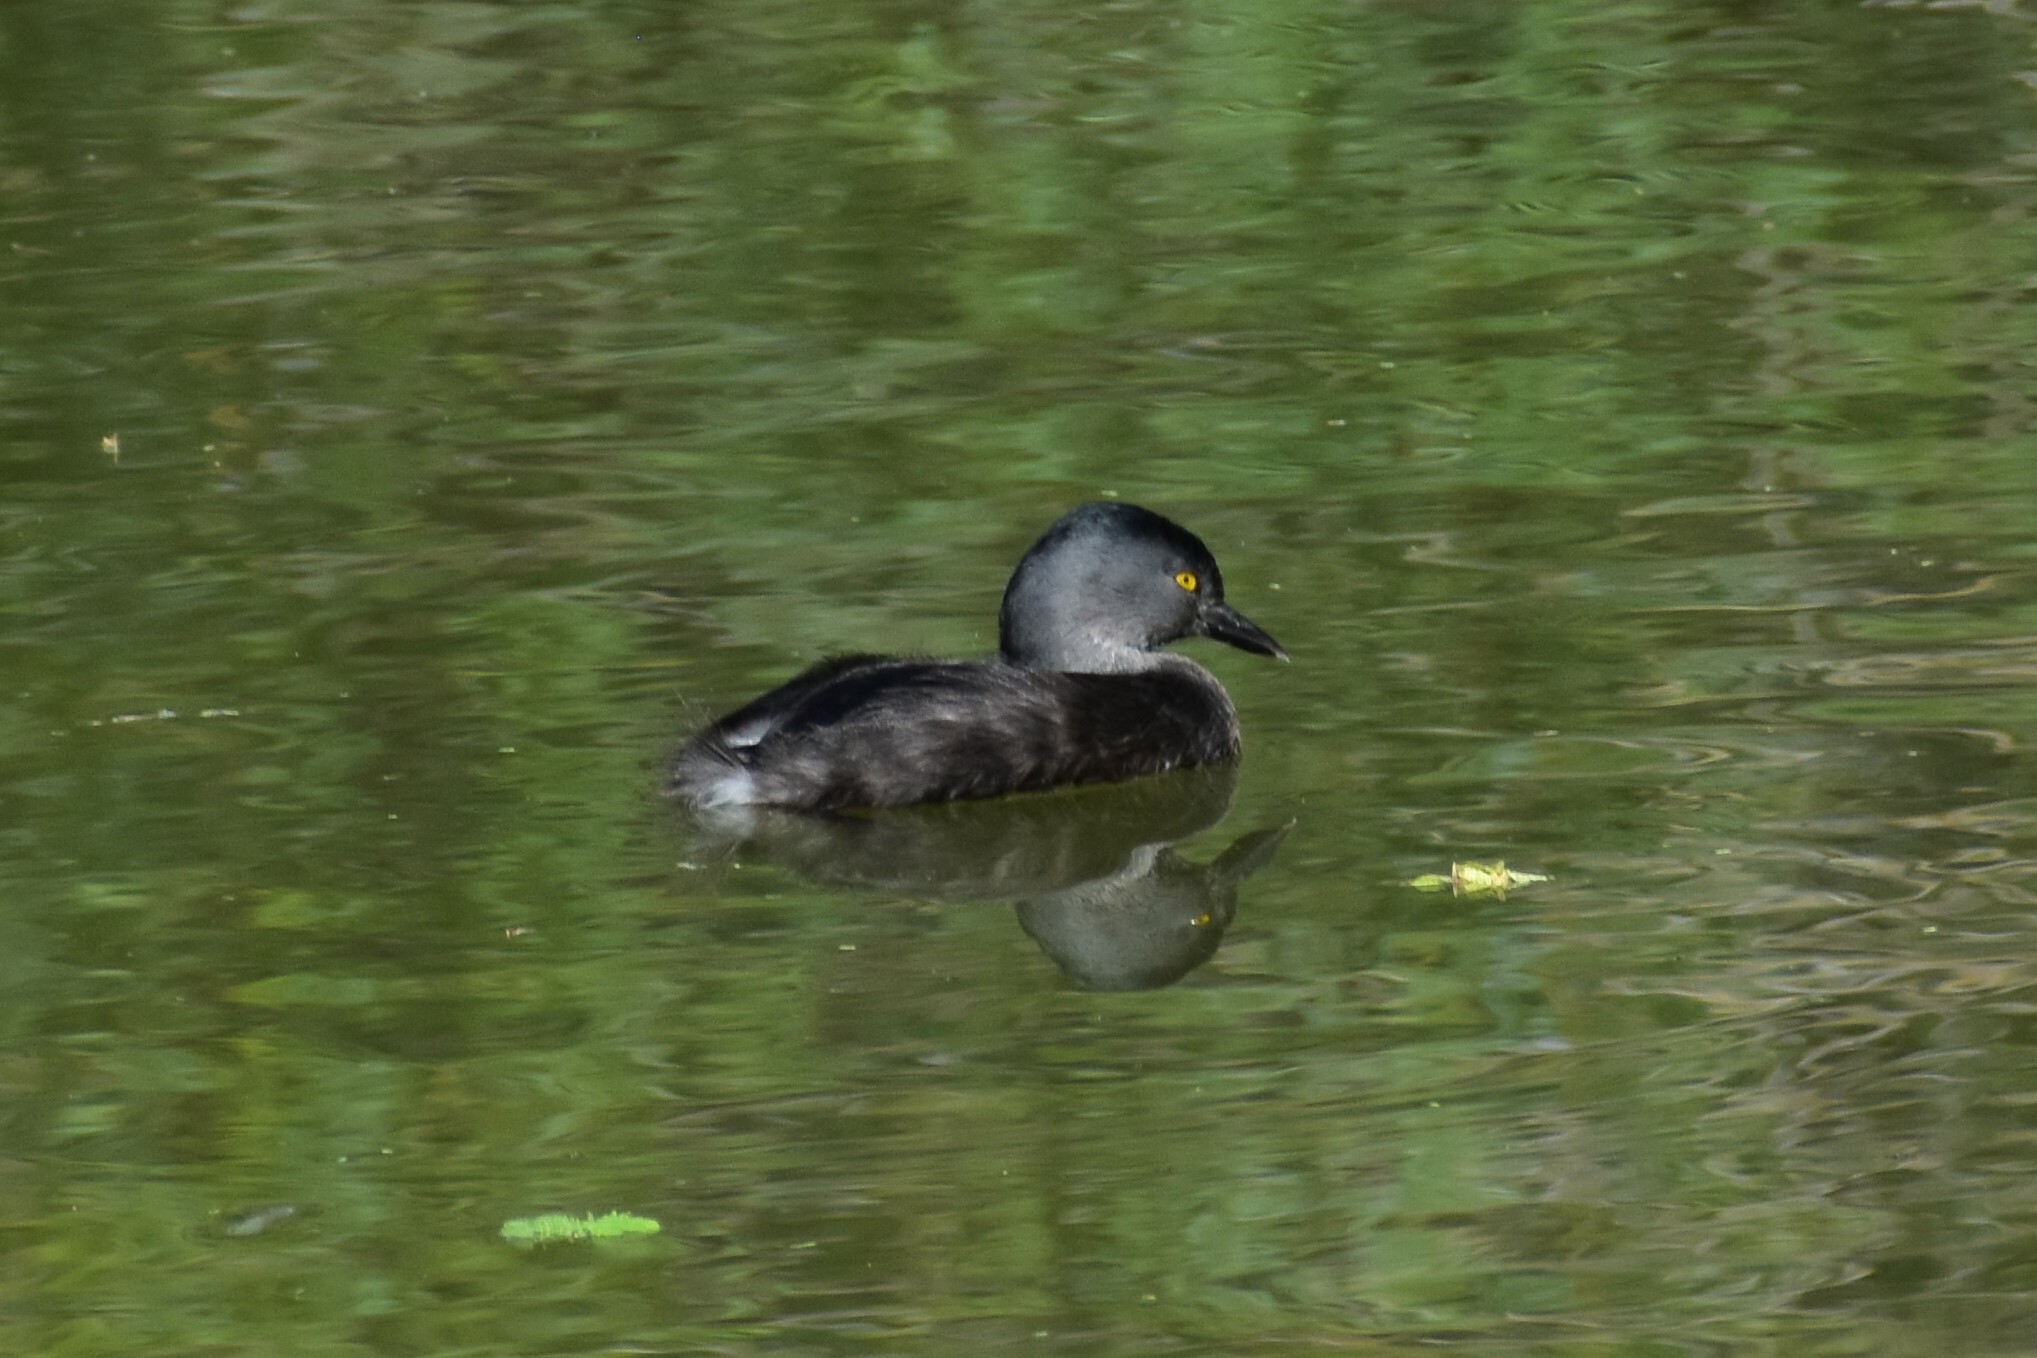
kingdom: Animalia
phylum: Chordata
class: Aves
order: Podicipediformes
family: Podicipedidae
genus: Tachybaptus
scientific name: Tachybaptus dominicus
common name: Least grebe
